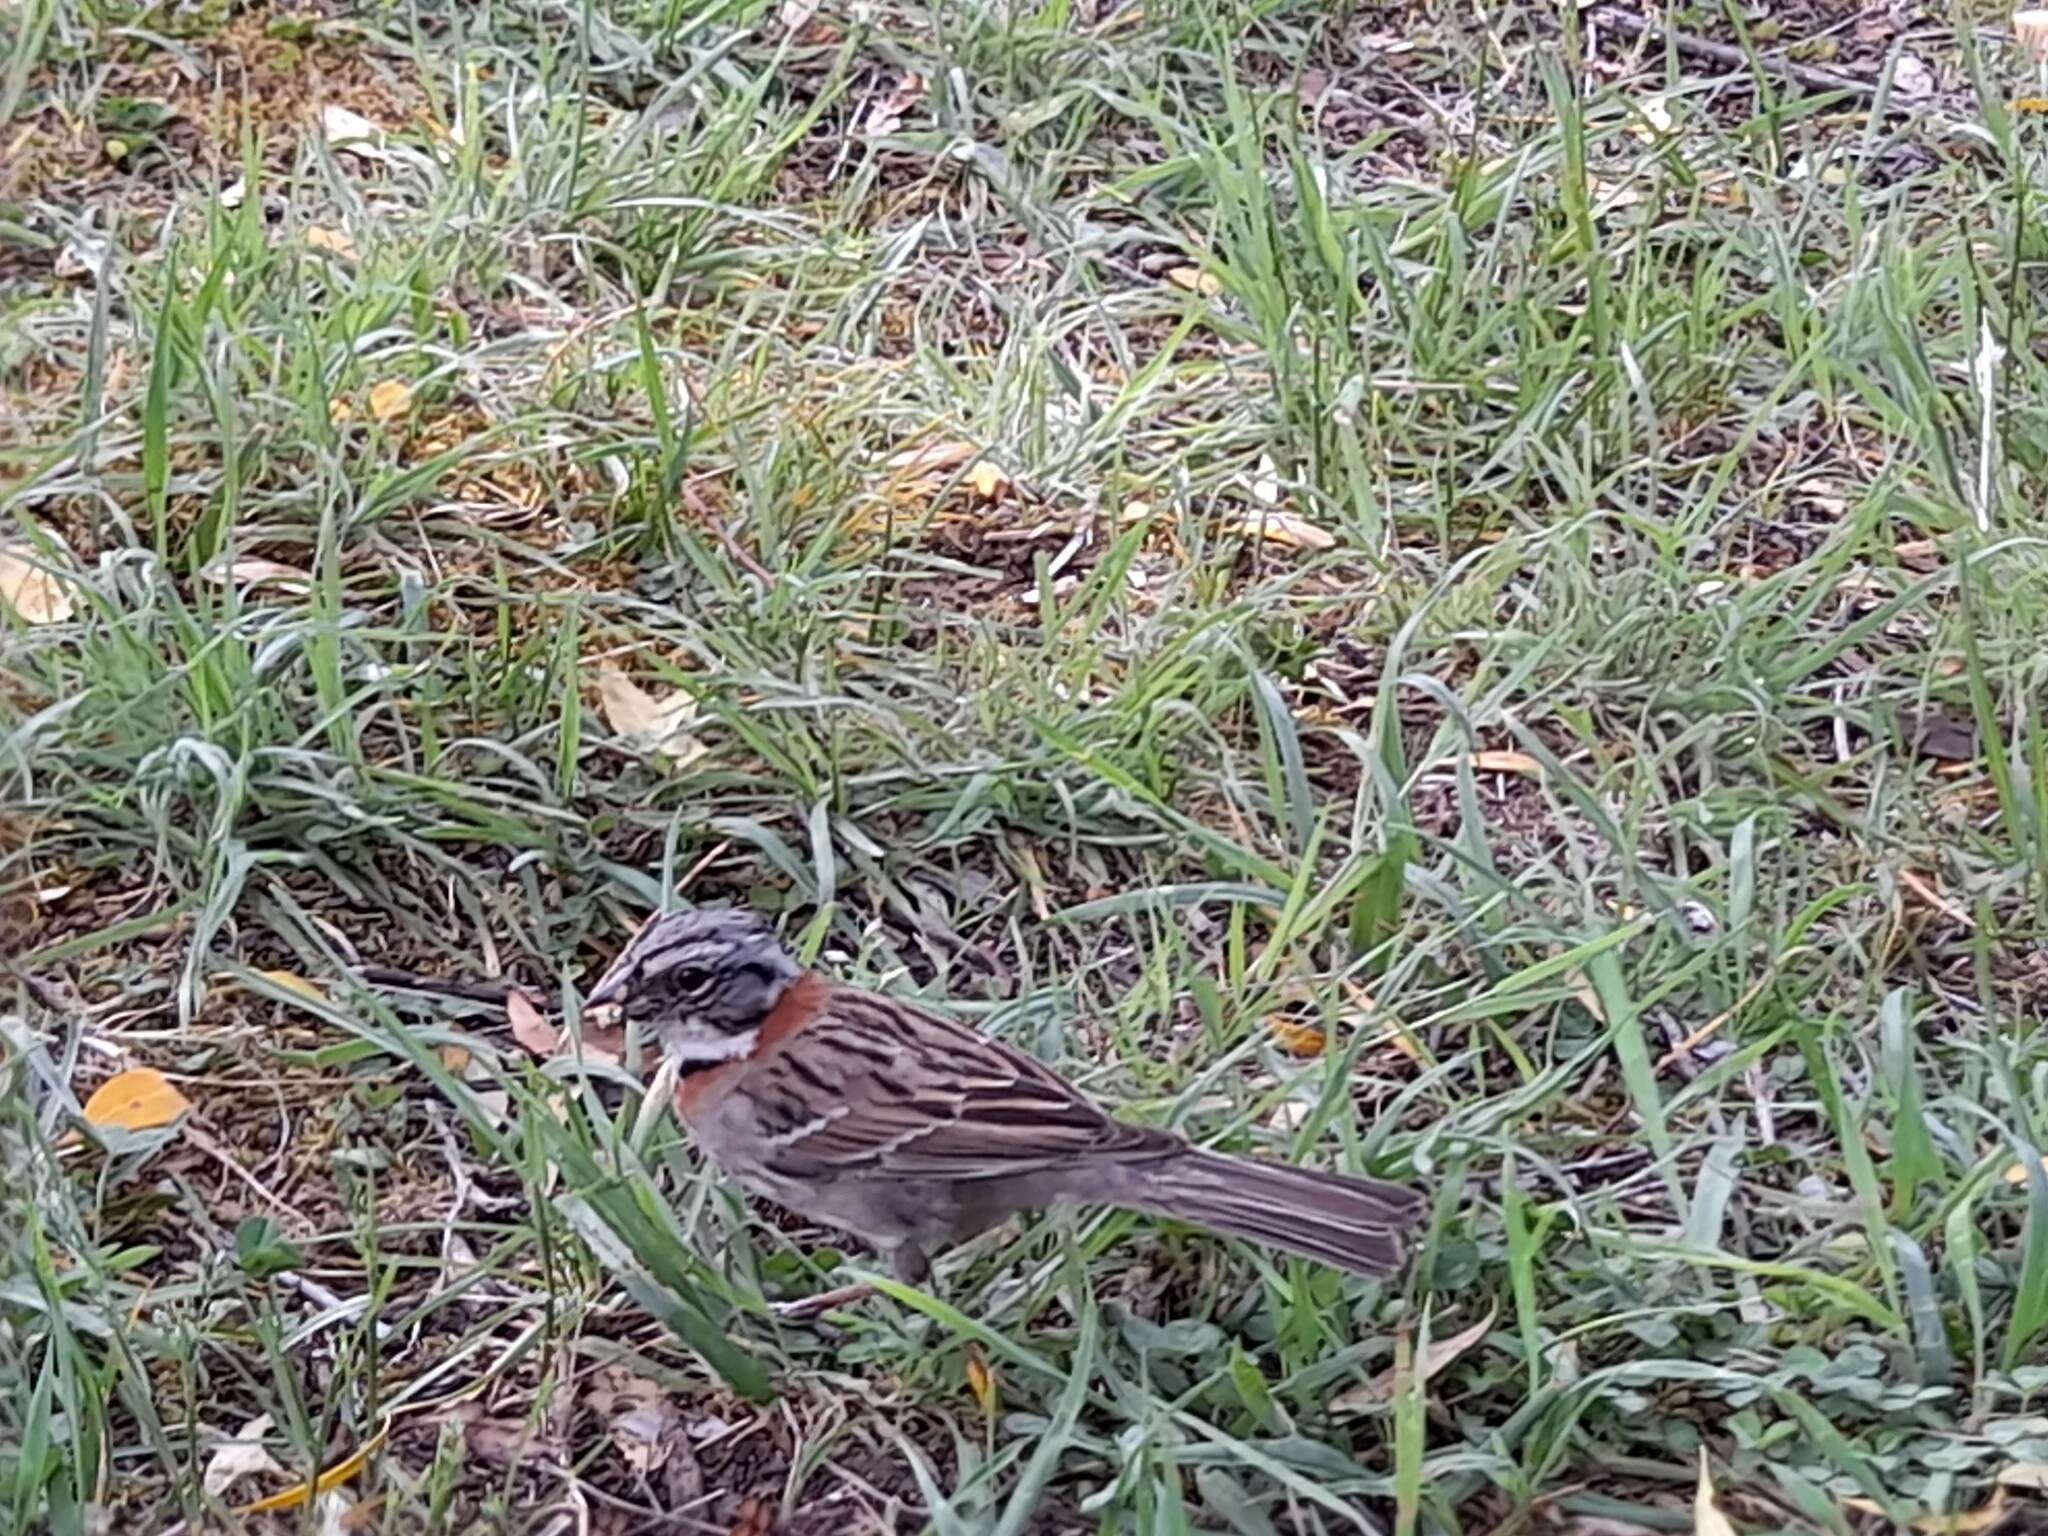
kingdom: Animalia
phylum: Chordata
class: Aves
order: Passeriformes
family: Passerellidae
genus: Zonotrichia
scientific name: Zonotrichia capensis
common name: Rufous-collared sparrow
